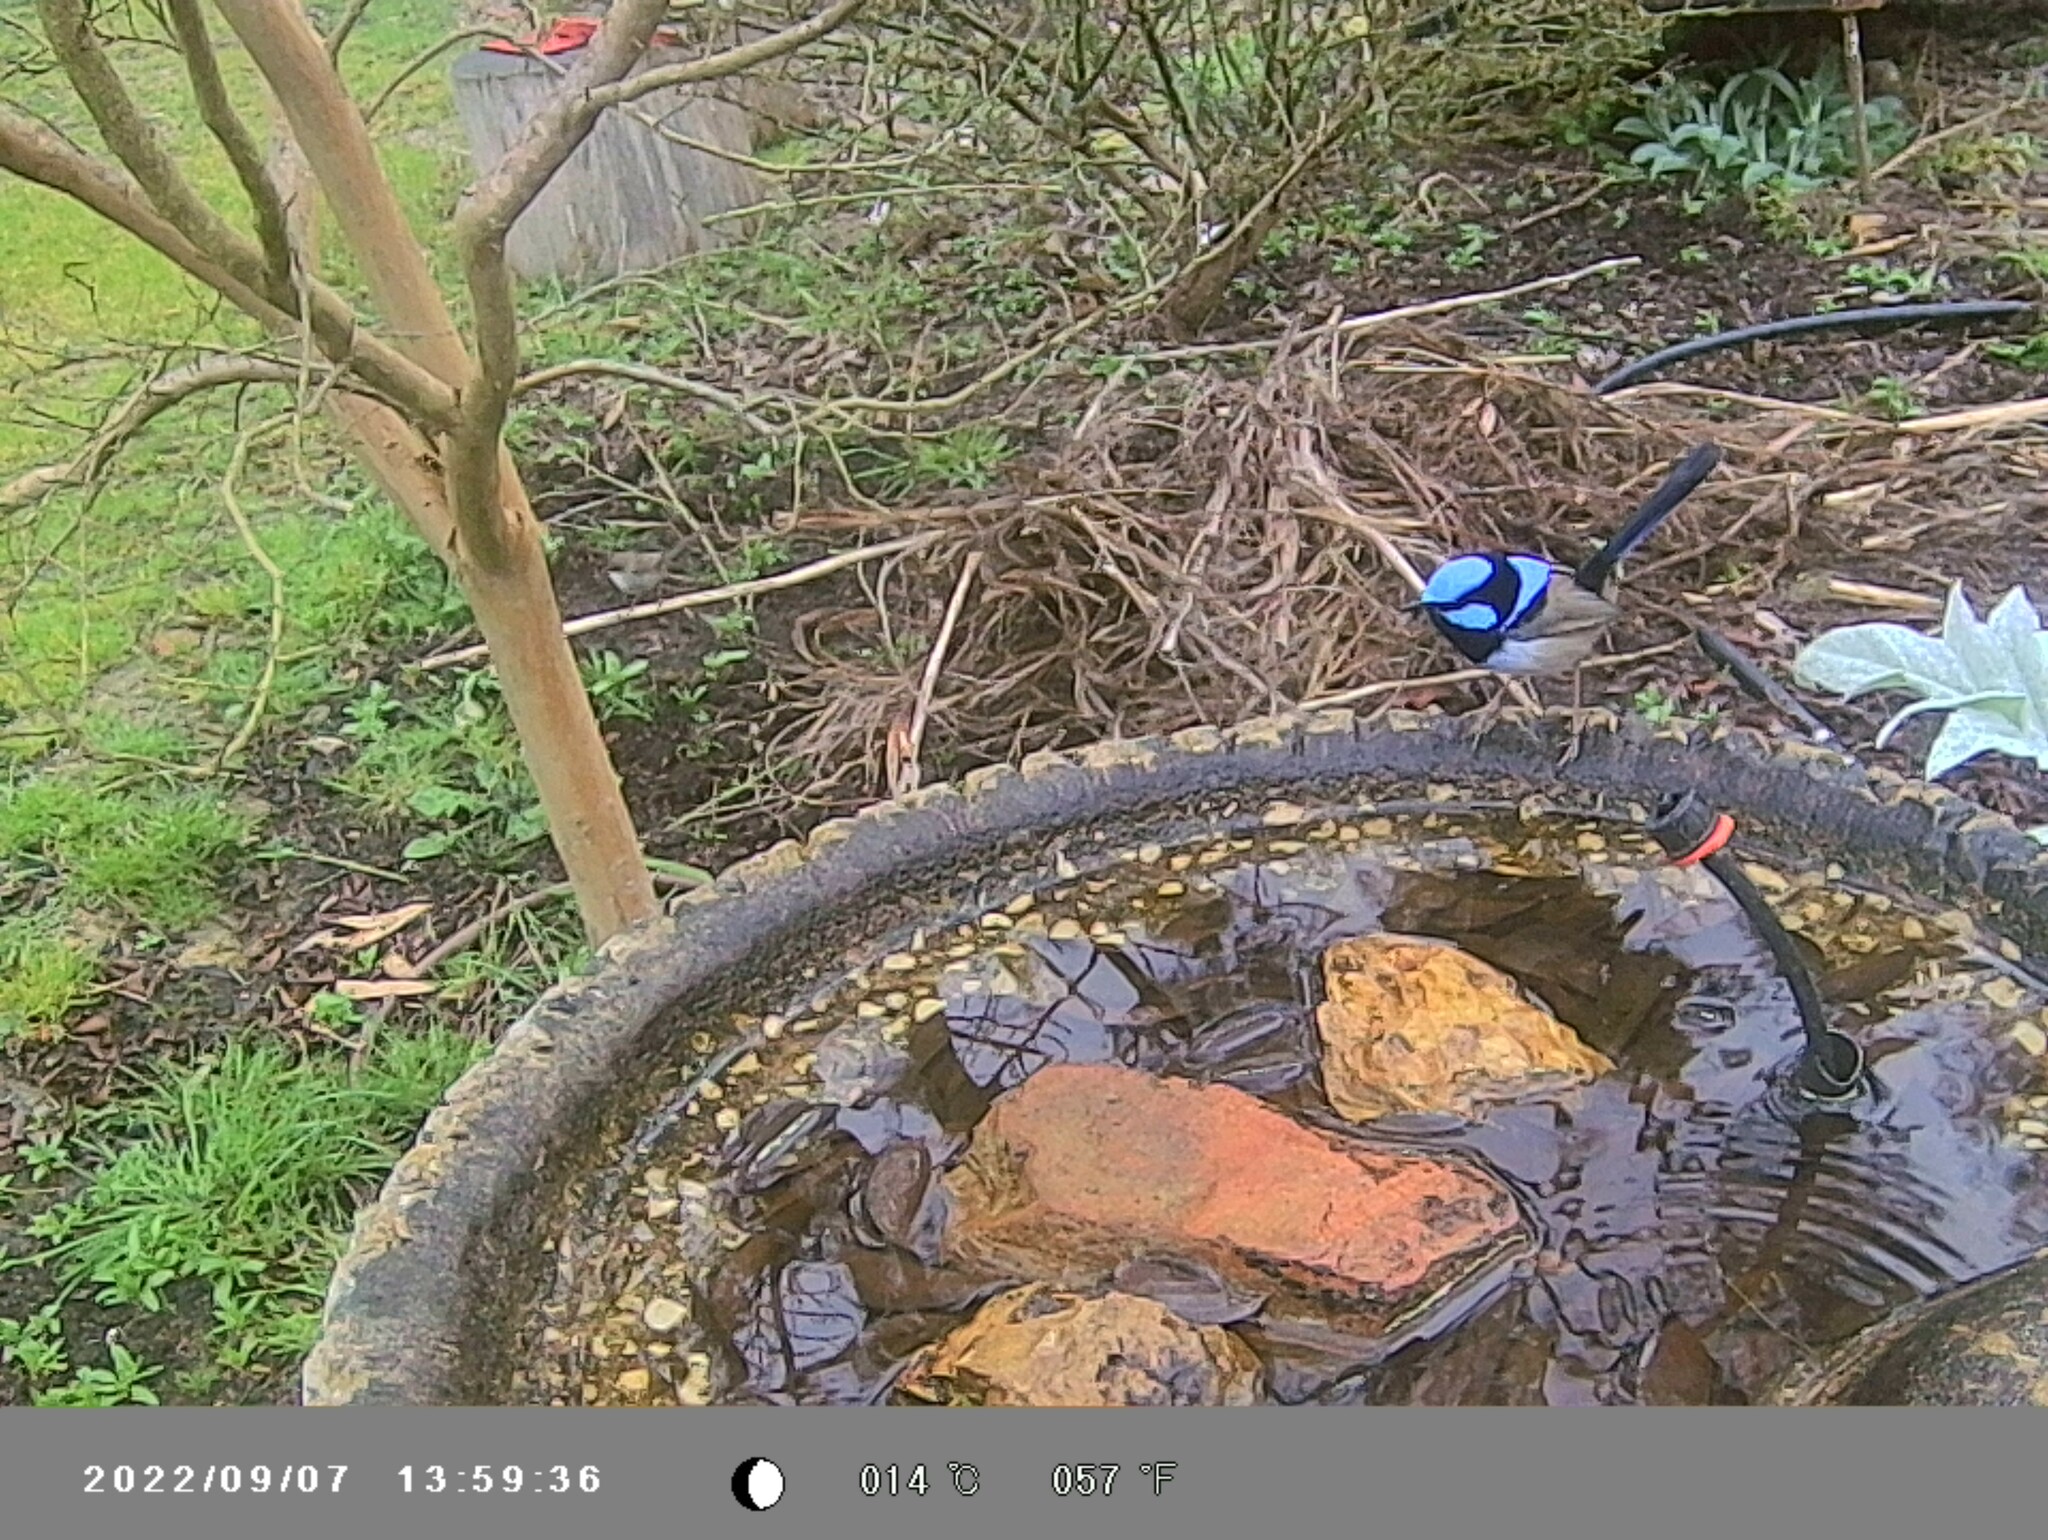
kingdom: Animalia
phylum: Chordata
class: Aves
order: Passeriformes
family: Maluridae
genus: Malurus
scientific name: Malurus cyaneus
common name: Superb fairywren
